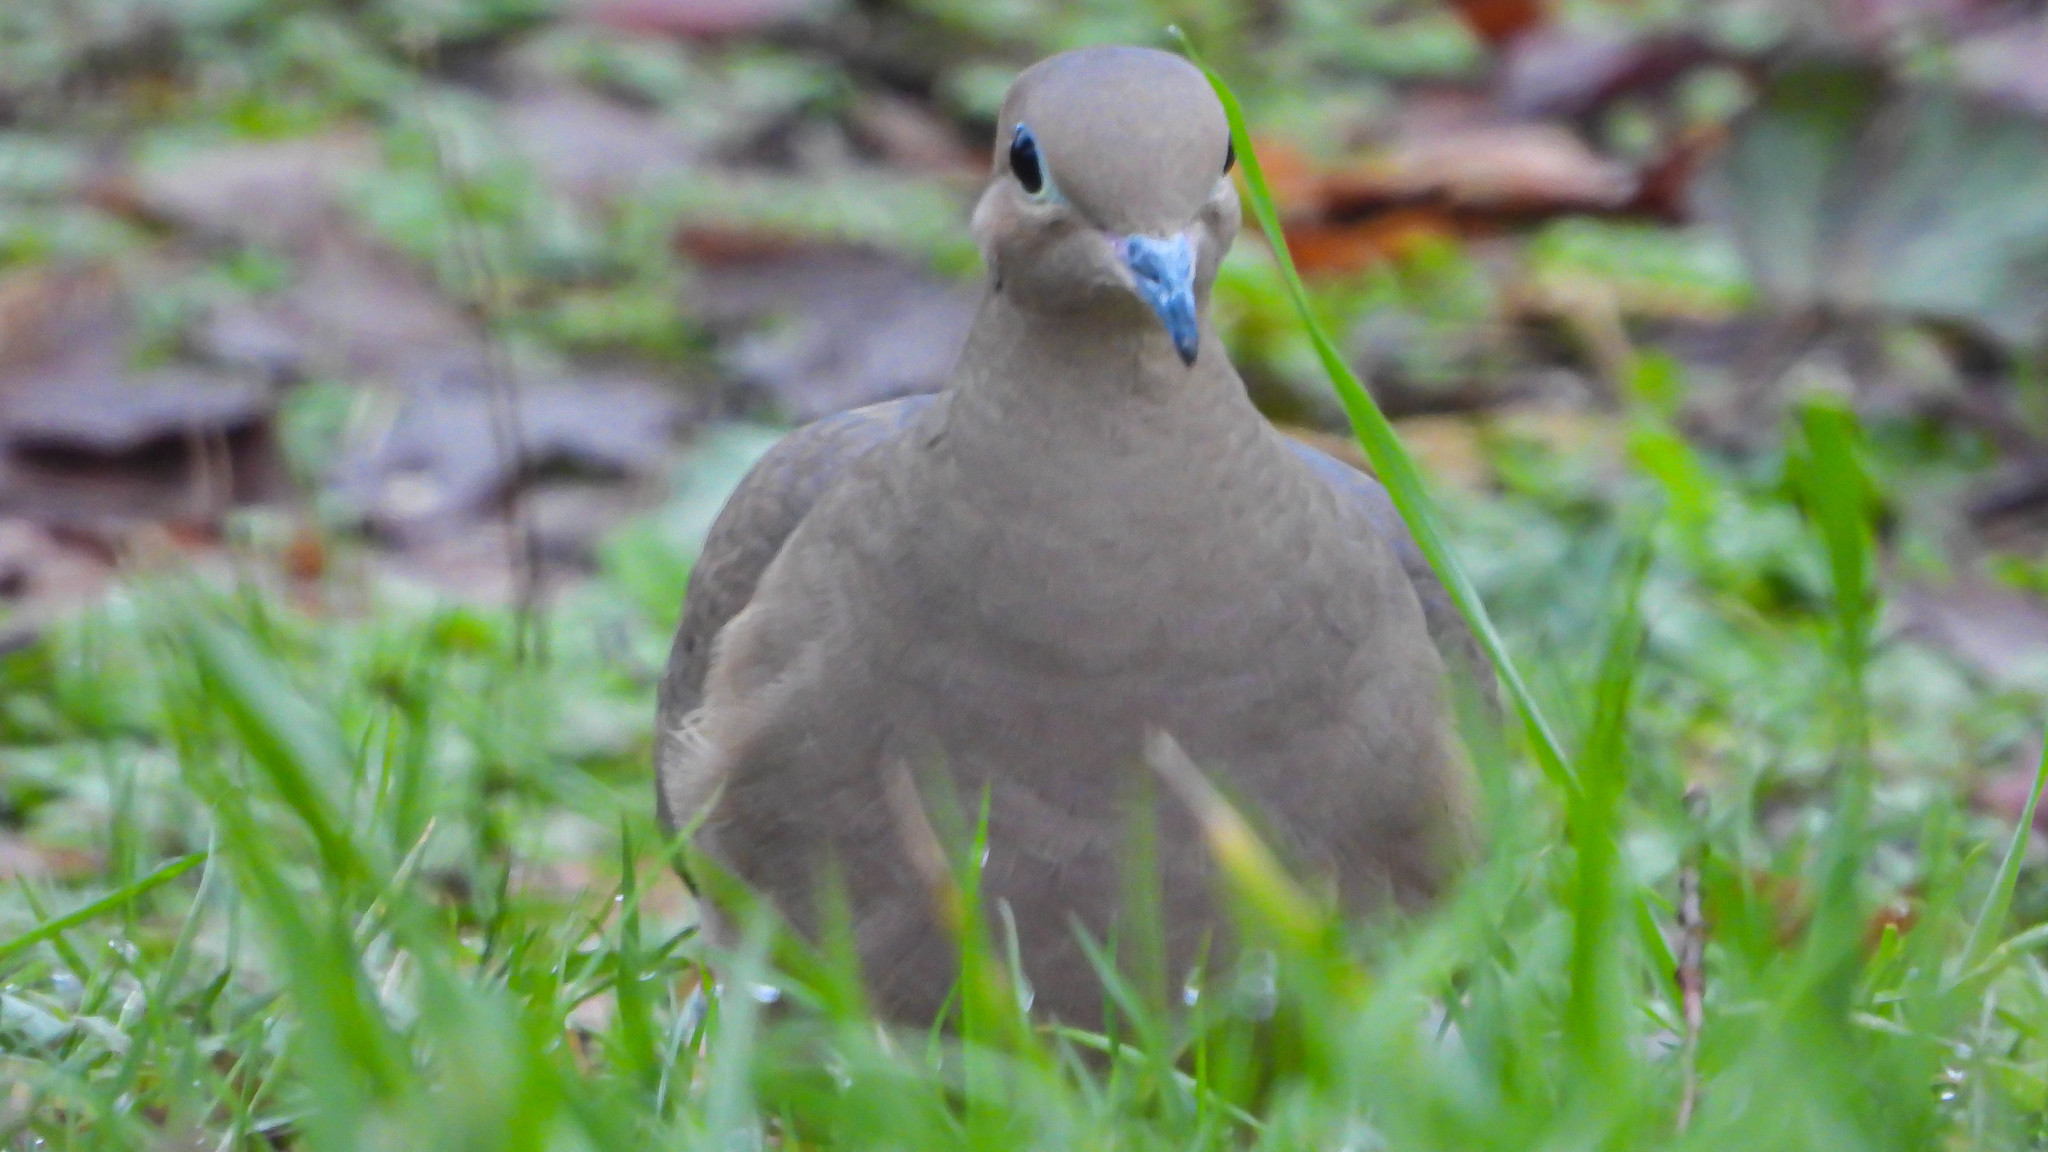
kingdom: Animalia
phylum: Chordata
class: Aves
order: Columbiformes
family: Columbidae
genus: Zenaida
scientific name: Zenaida macroura
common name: Mourning dove
